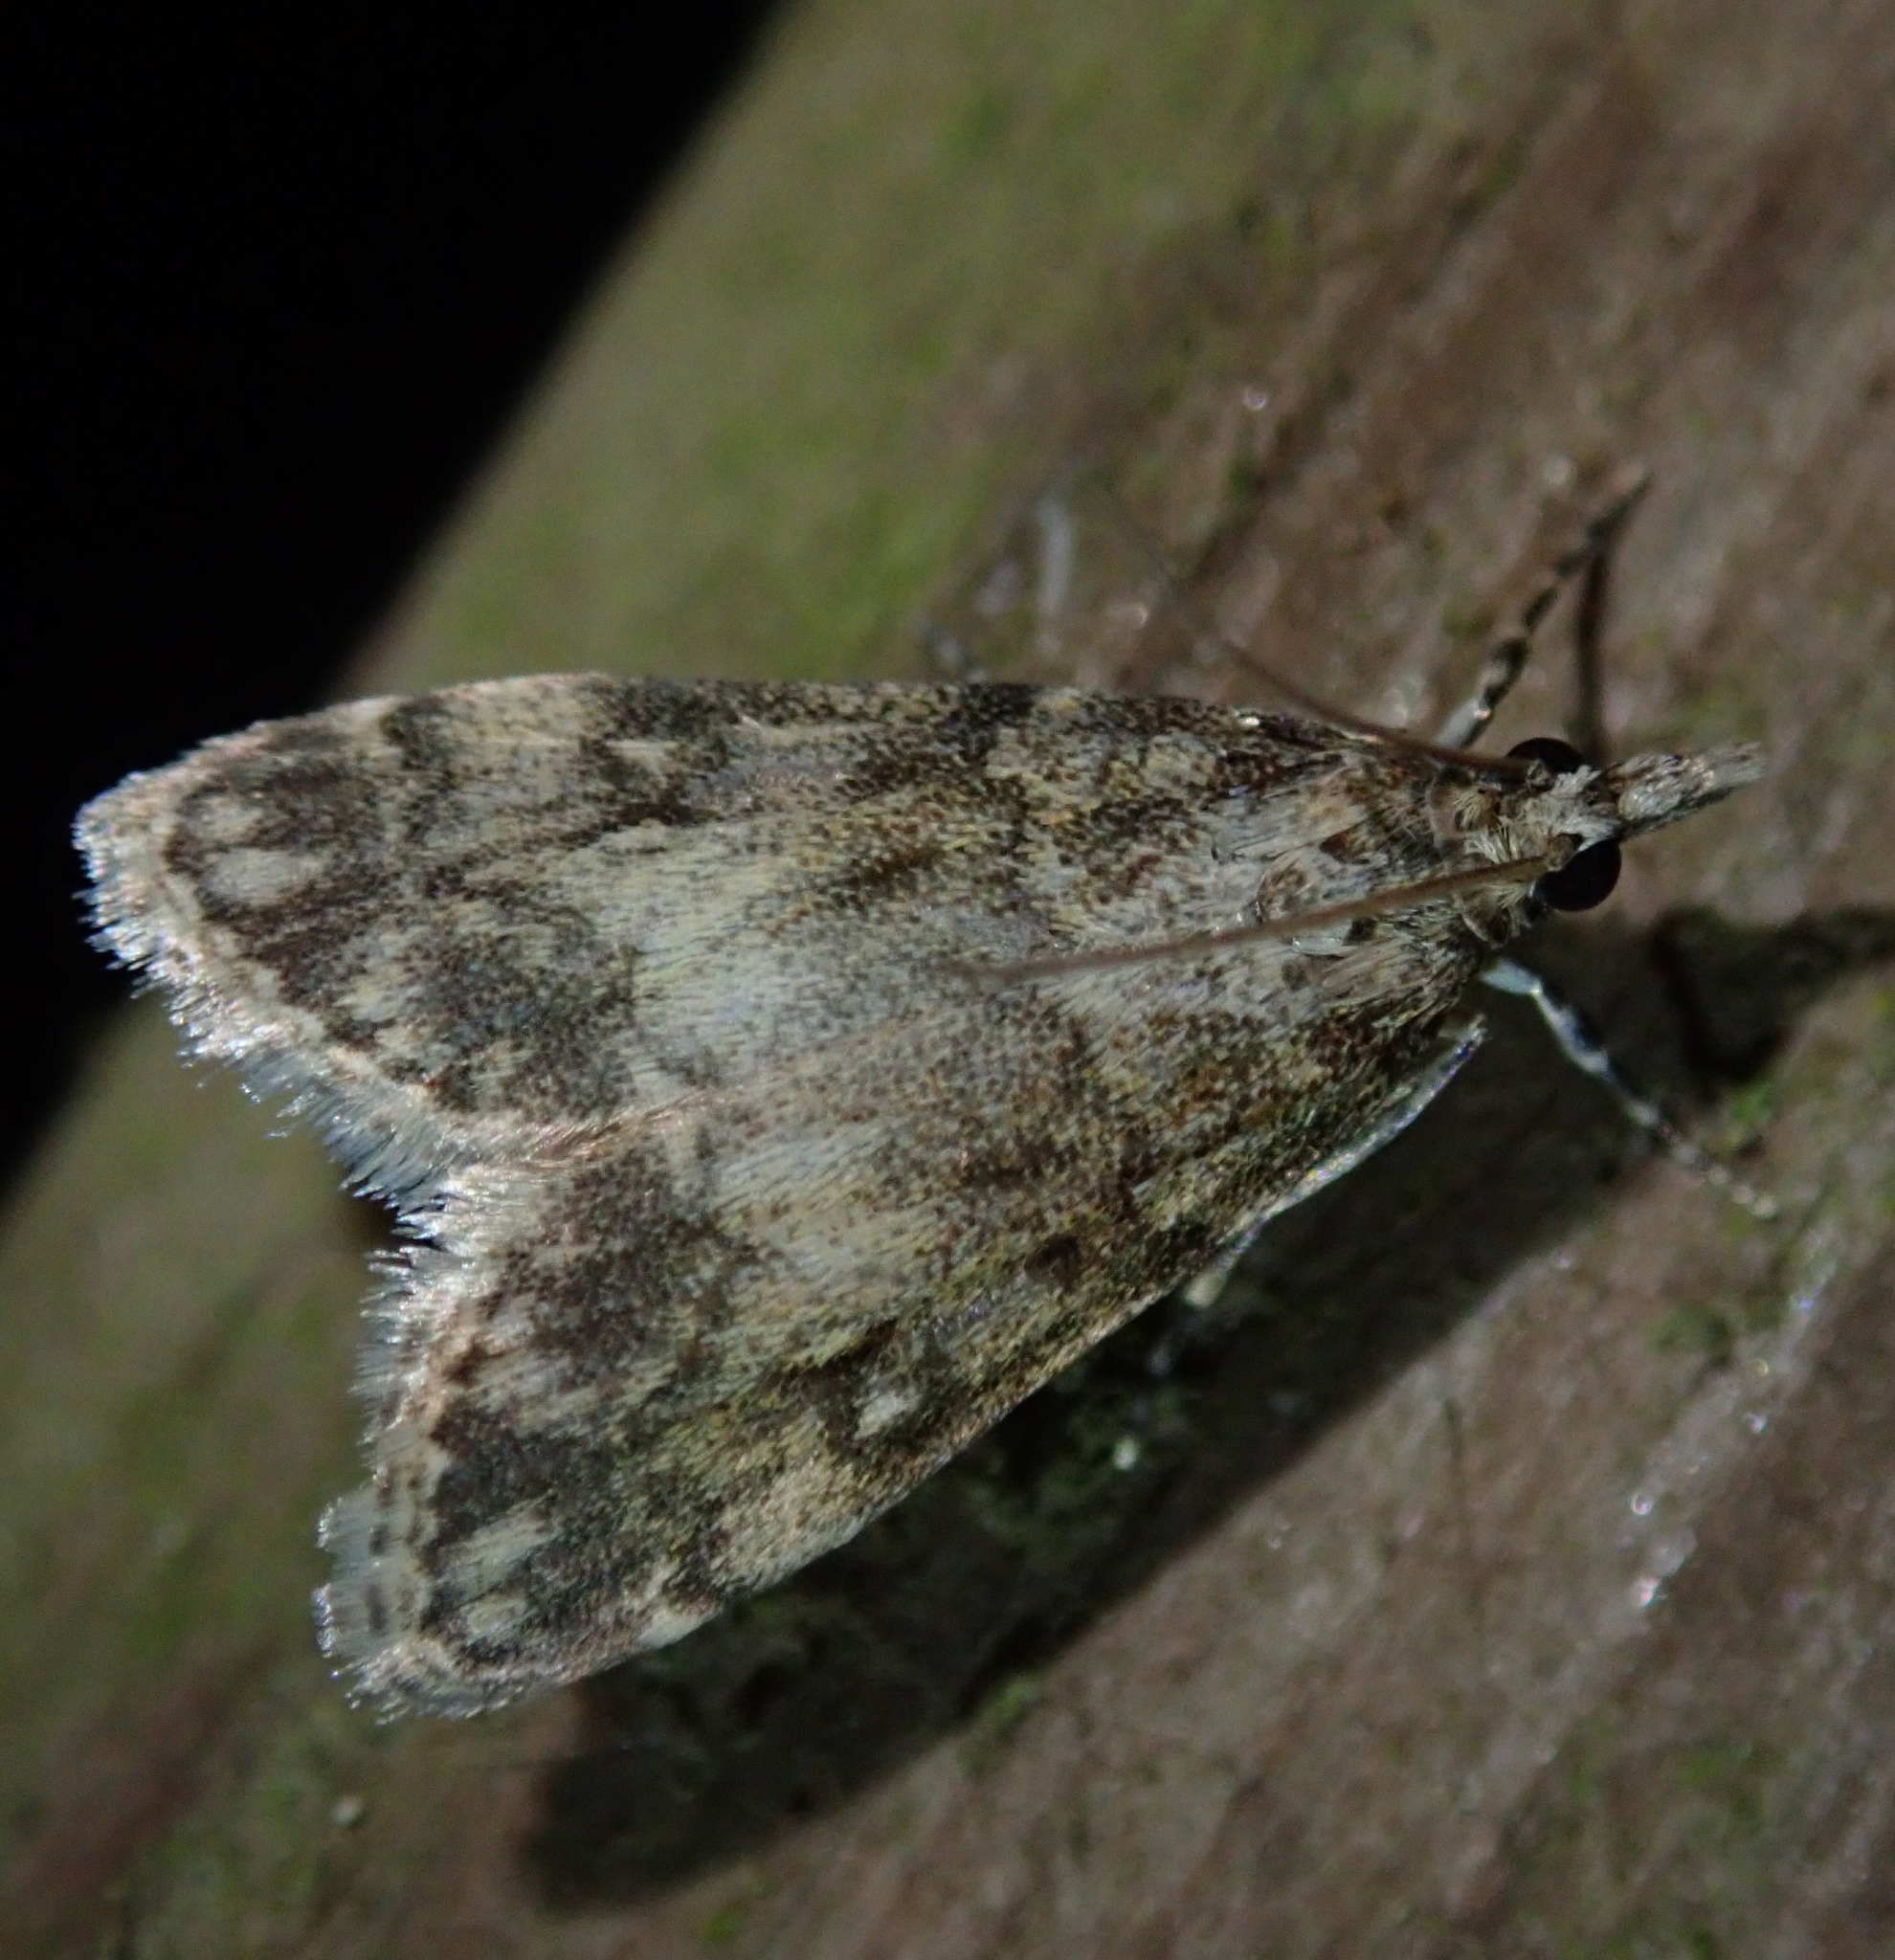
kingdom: Animalia
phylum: Arthropoda
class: Insecta
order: Lepidoptera
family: Crambidae
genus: Eudonia
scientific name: Eudonia lacustrata
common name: Little grey
